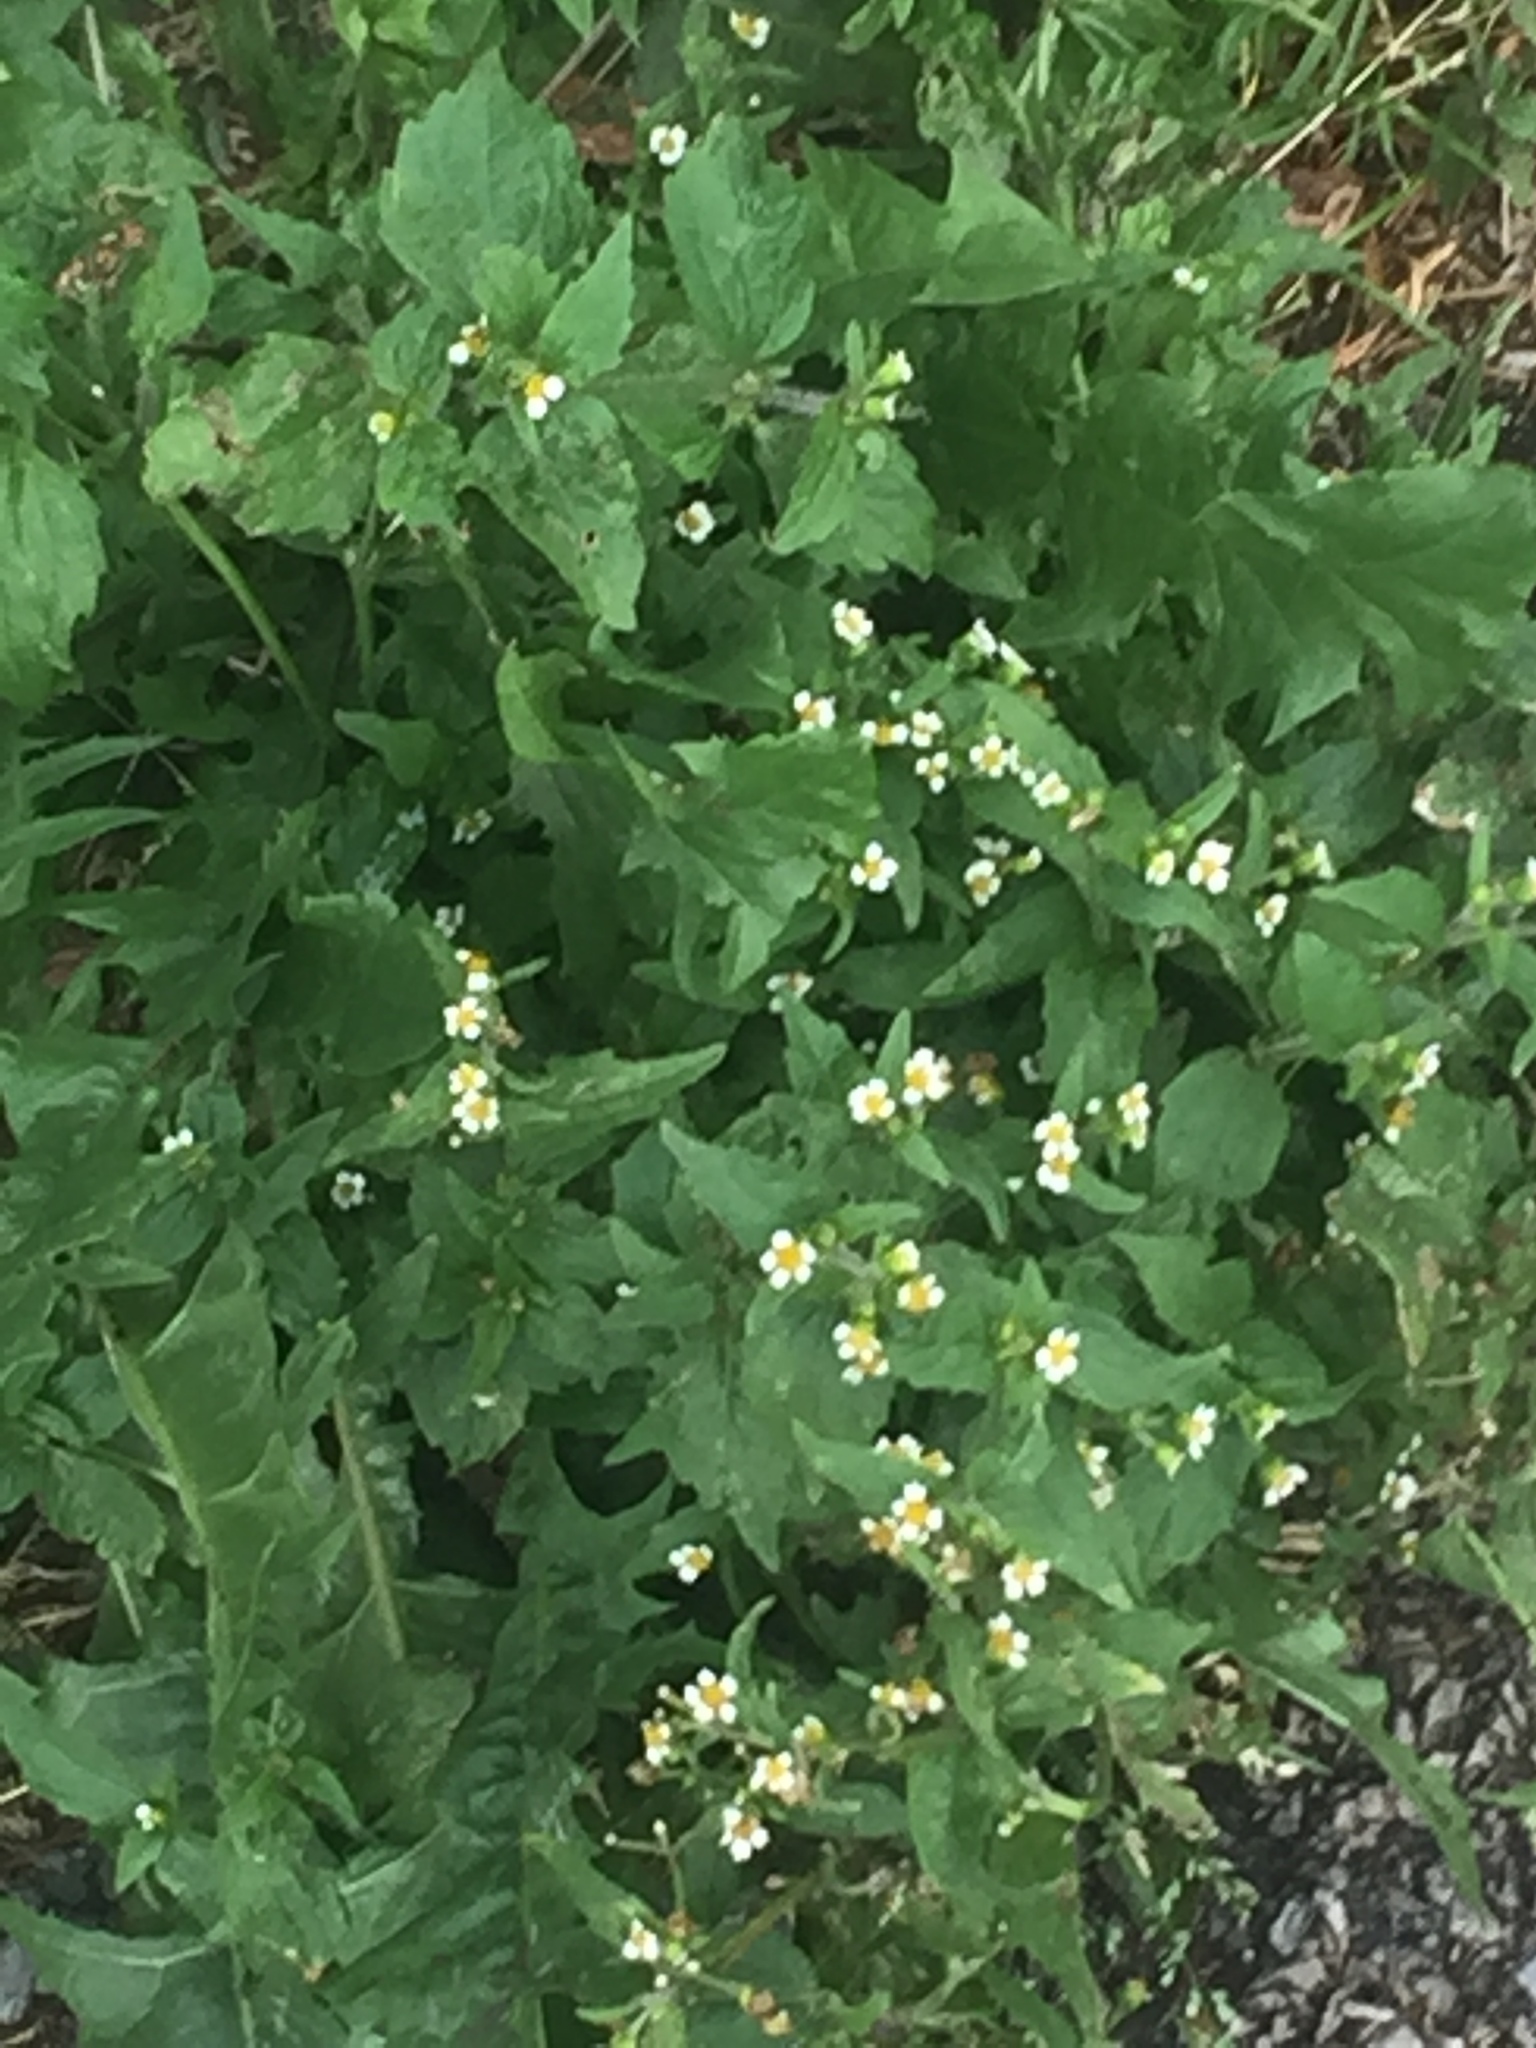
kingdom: Plantae
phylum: Tracheophyta
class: Magnoliopsida
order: Asterales
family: Asteraceae
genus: Galinsoga
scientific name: Galinsoga quadriradiata
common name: Shaggy soldier
